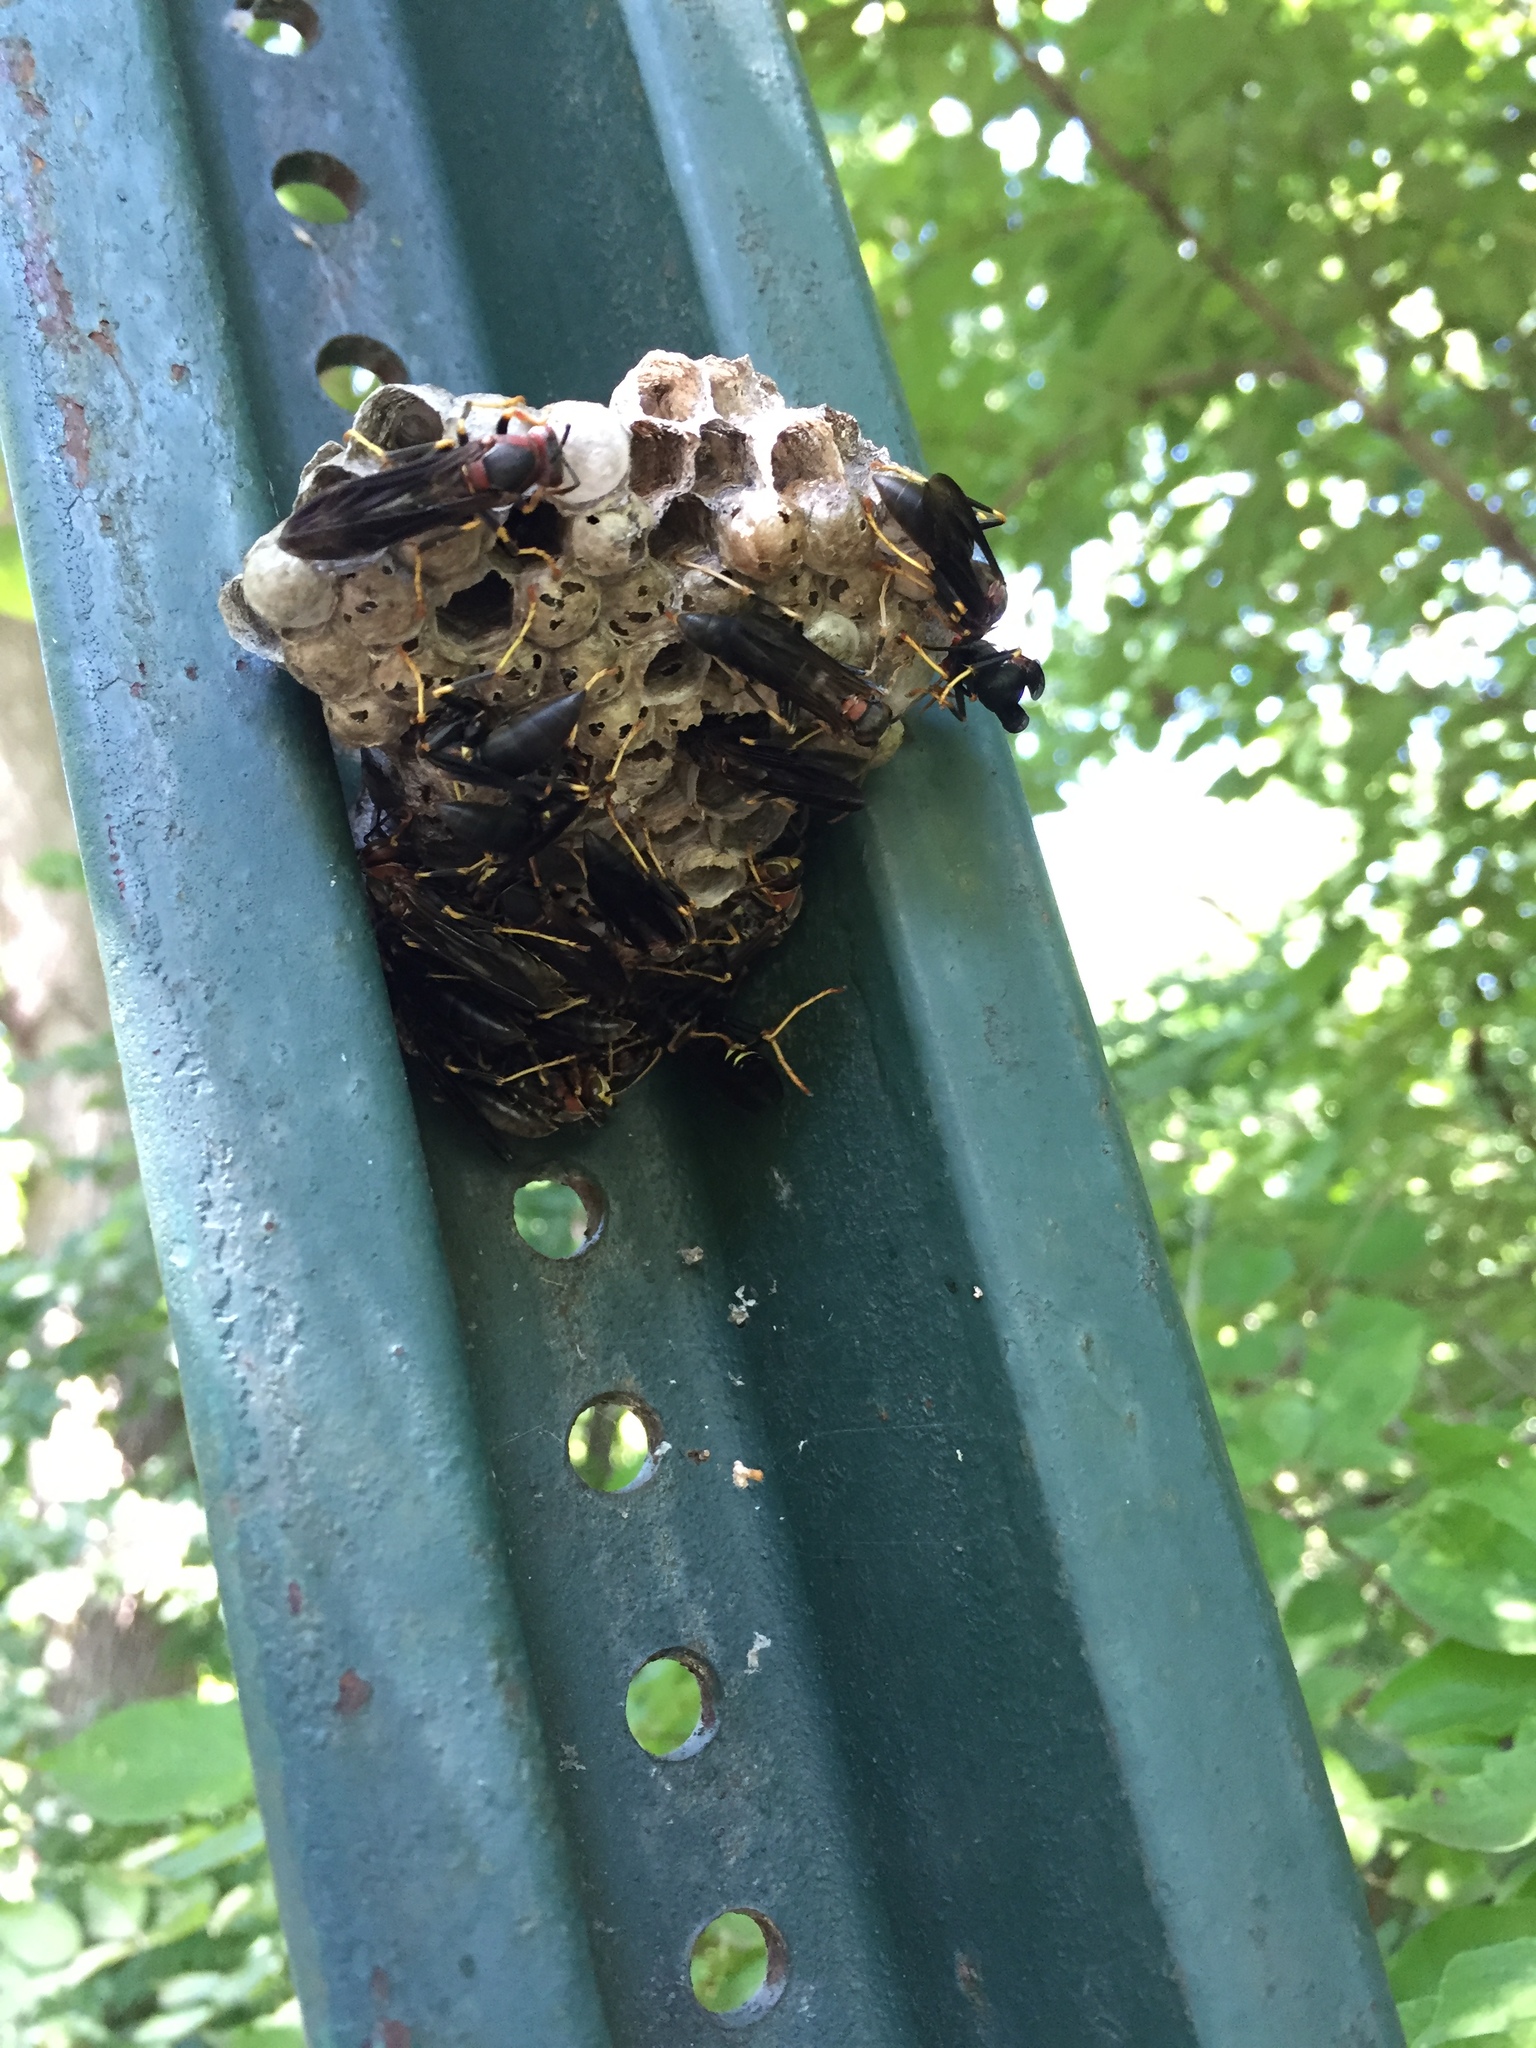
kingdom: Animalia
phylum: Arthropoda
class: Insecta
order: Hymenoptera
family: Eumenidae
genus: Polistes
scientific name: Polistes fuscatus
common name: Dark paper wasp
